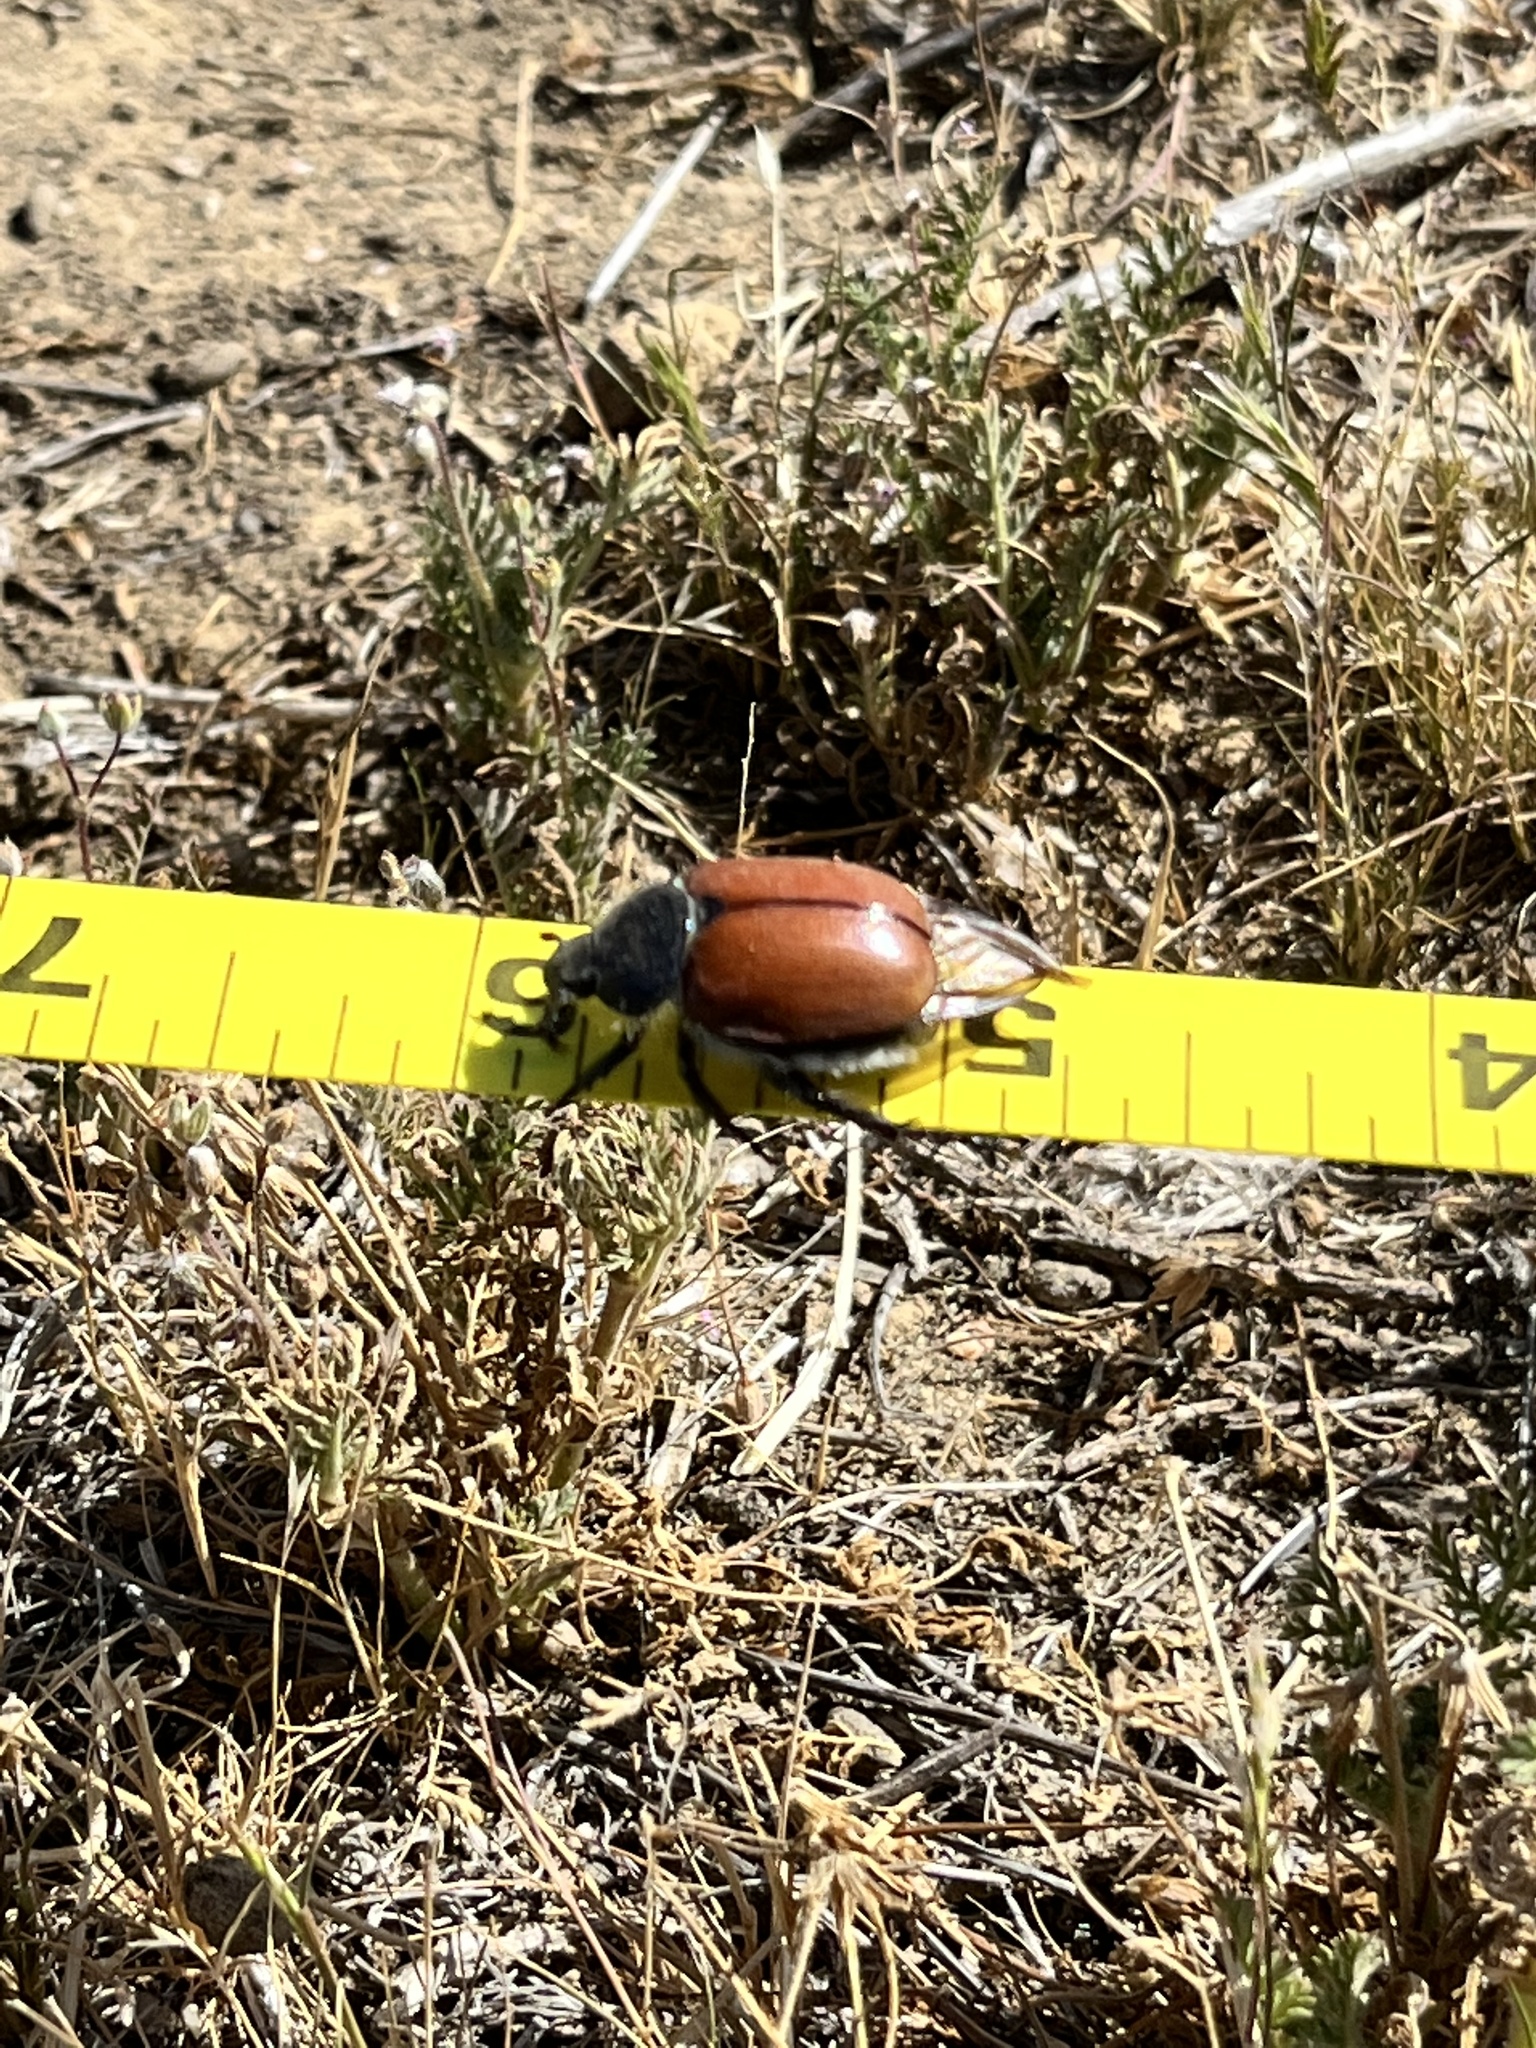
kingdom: Animalia
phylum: Arthropoda
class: Insecta
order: Coleoptera
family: Scarabaeidae
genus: Paracotalpa
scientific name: Paracotalpa ursina
